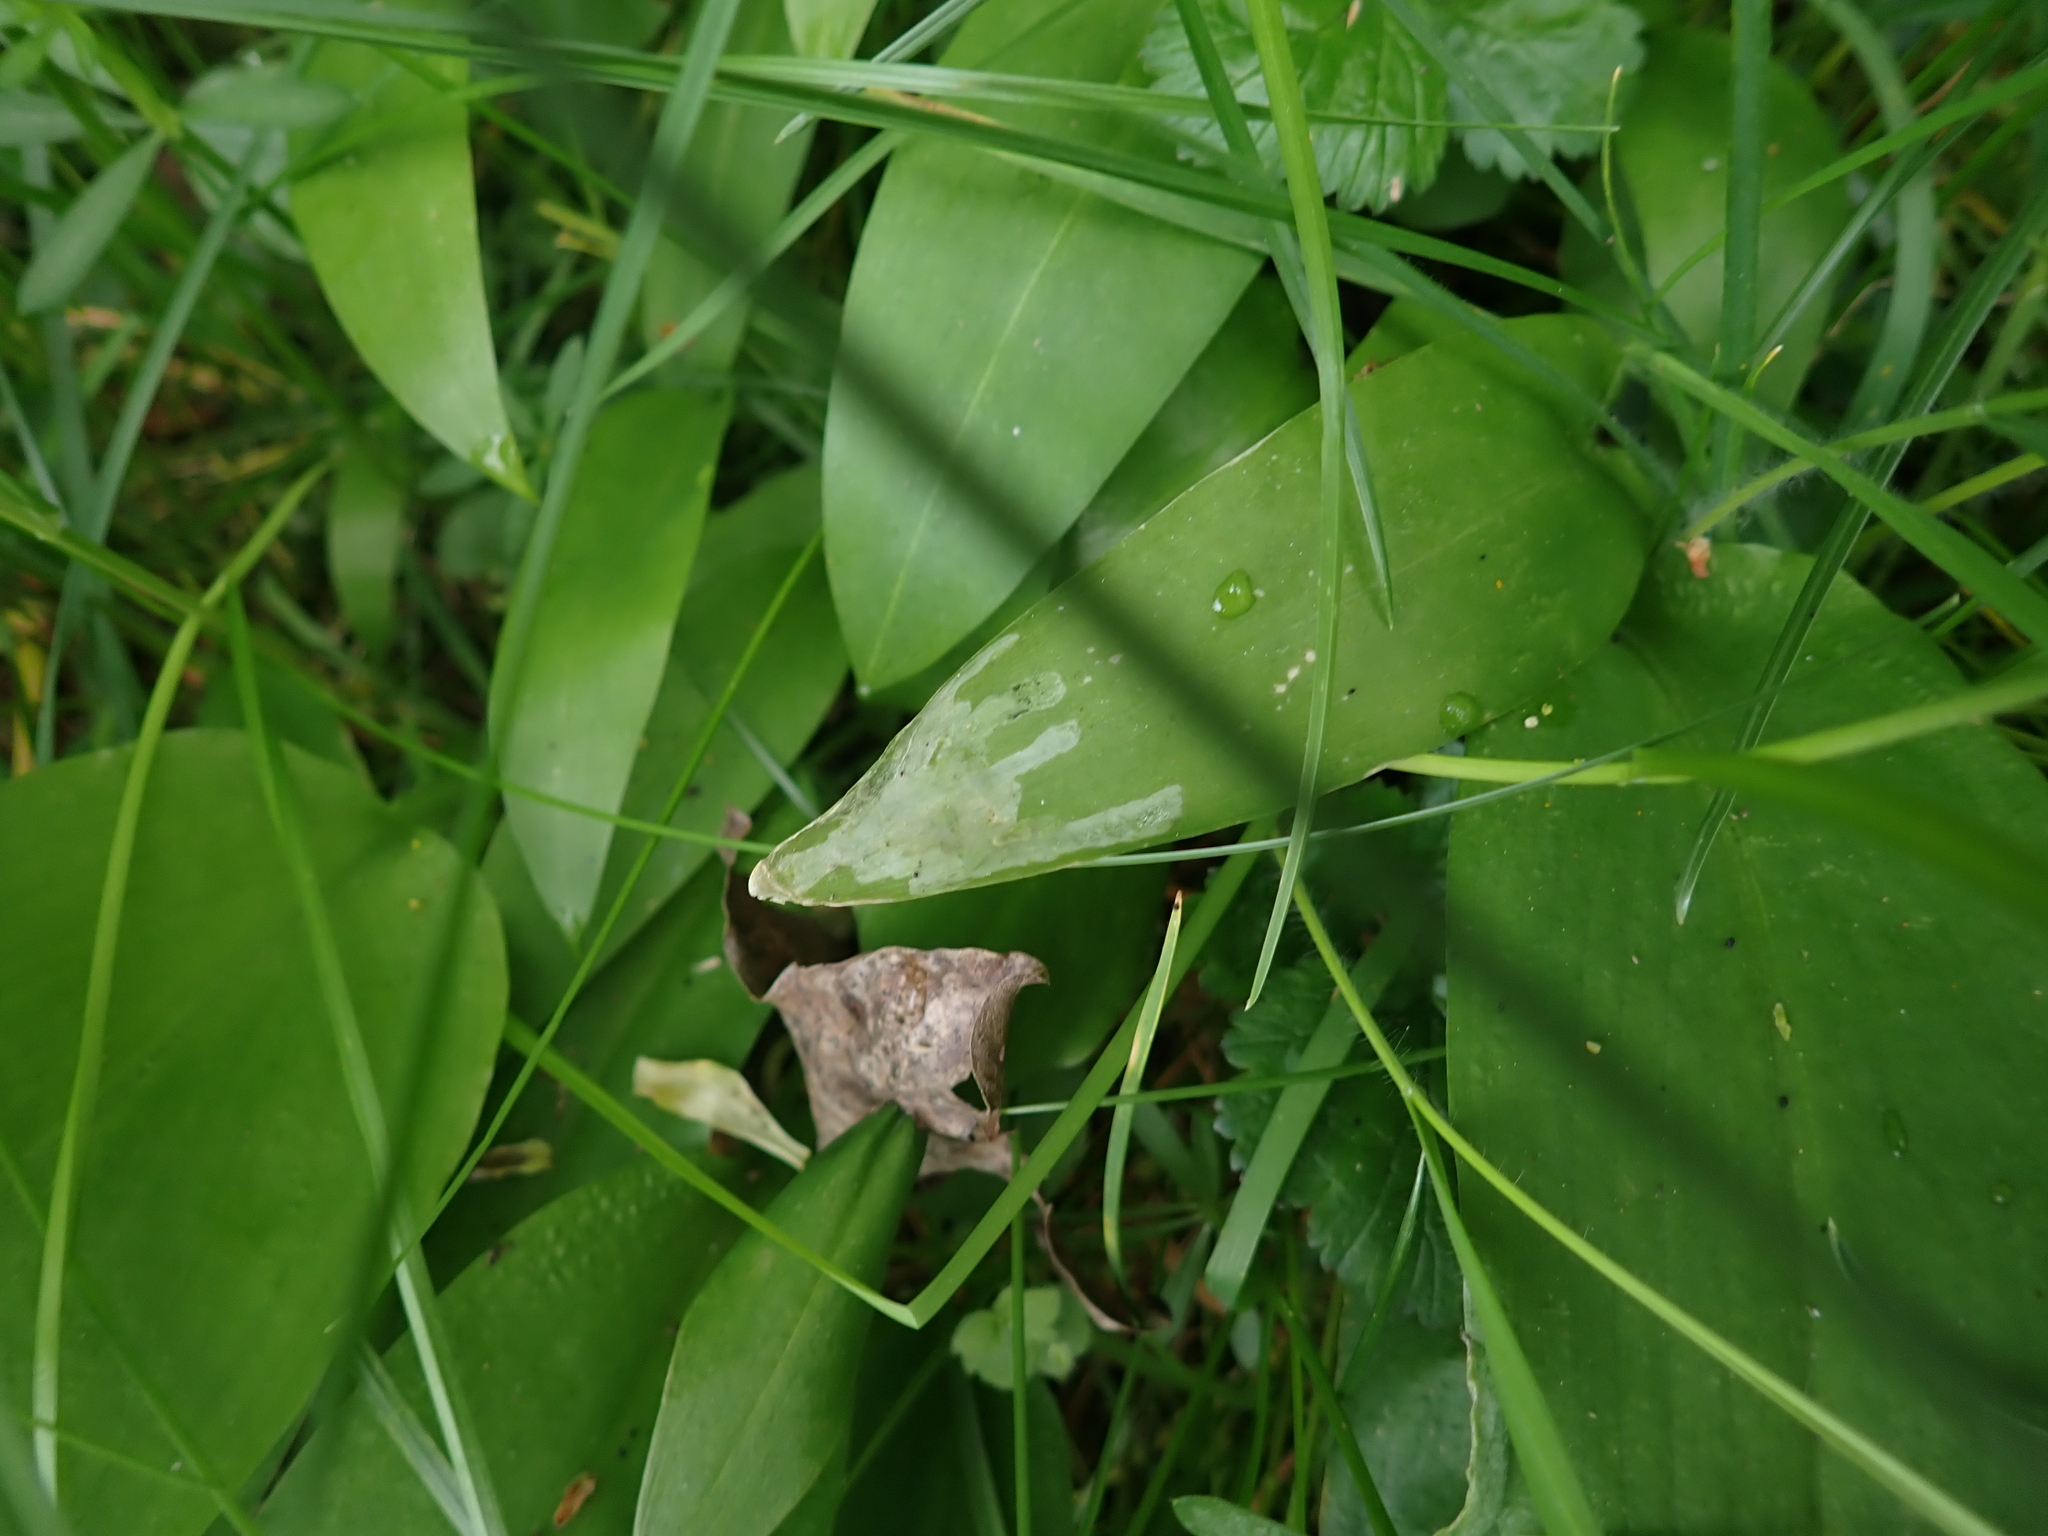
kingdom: Animalia
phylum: Arthropoda
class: Insecta
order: Diptera
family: Syrphidae
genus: Cheilosia
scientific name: Cheilosia fasciata
